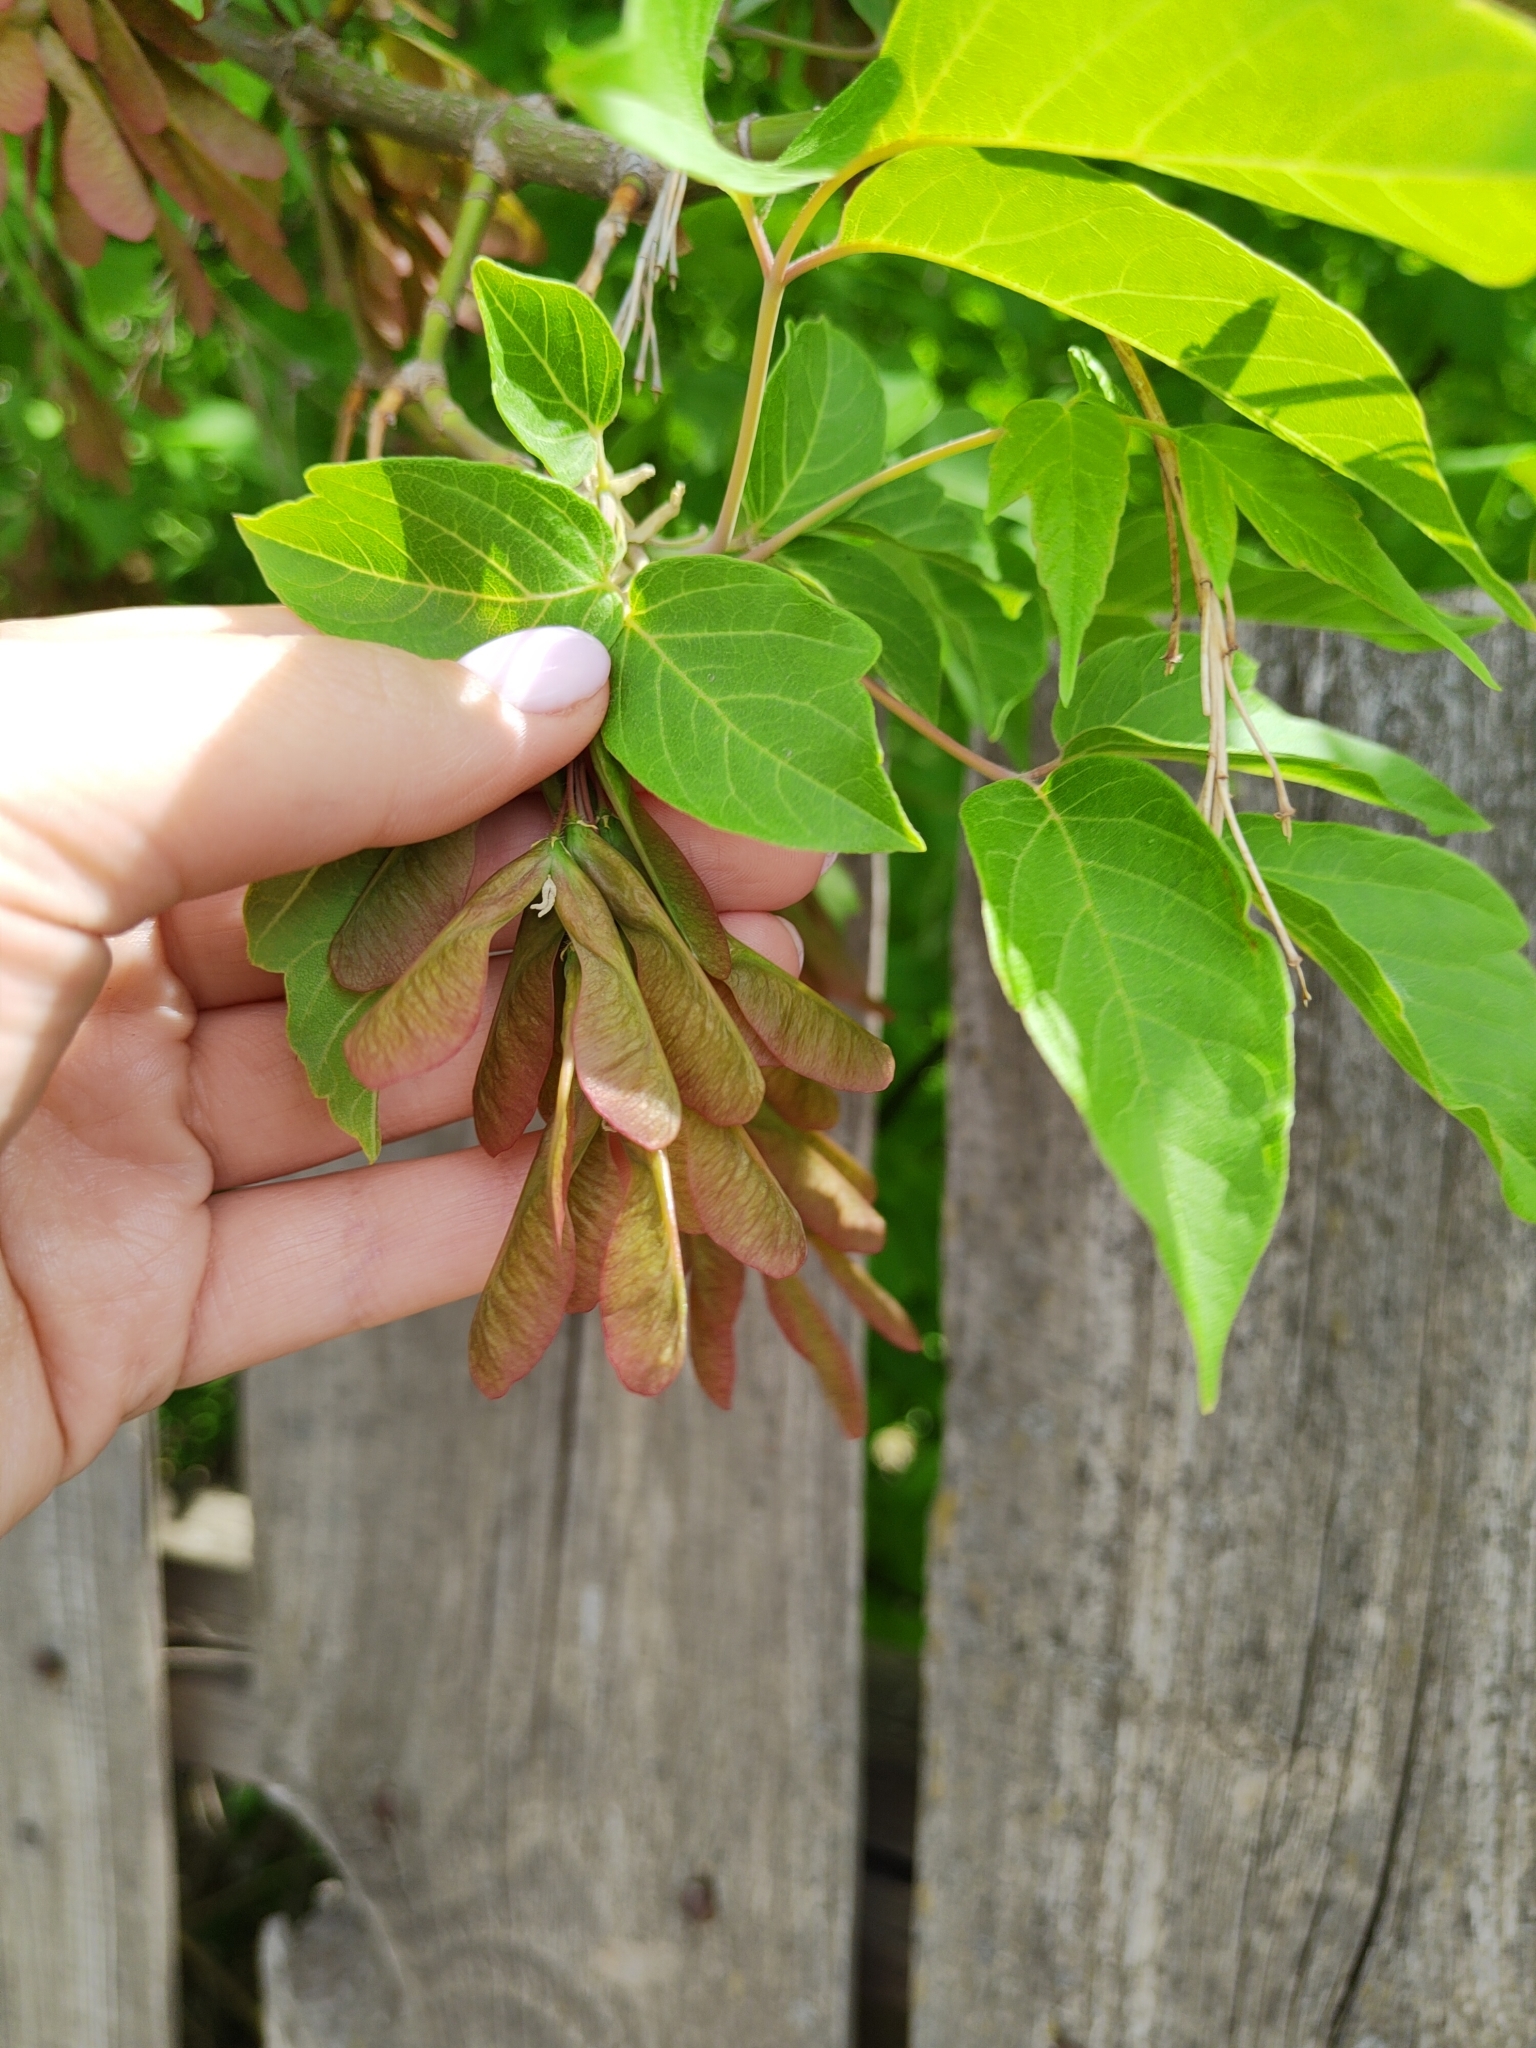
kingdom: Plantae
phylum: Tracheophyta
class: Magnoliopsida
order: Sapindales
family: Sapindaceae
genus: Acer
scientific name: Acer negundo
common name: Ashleaf maple
